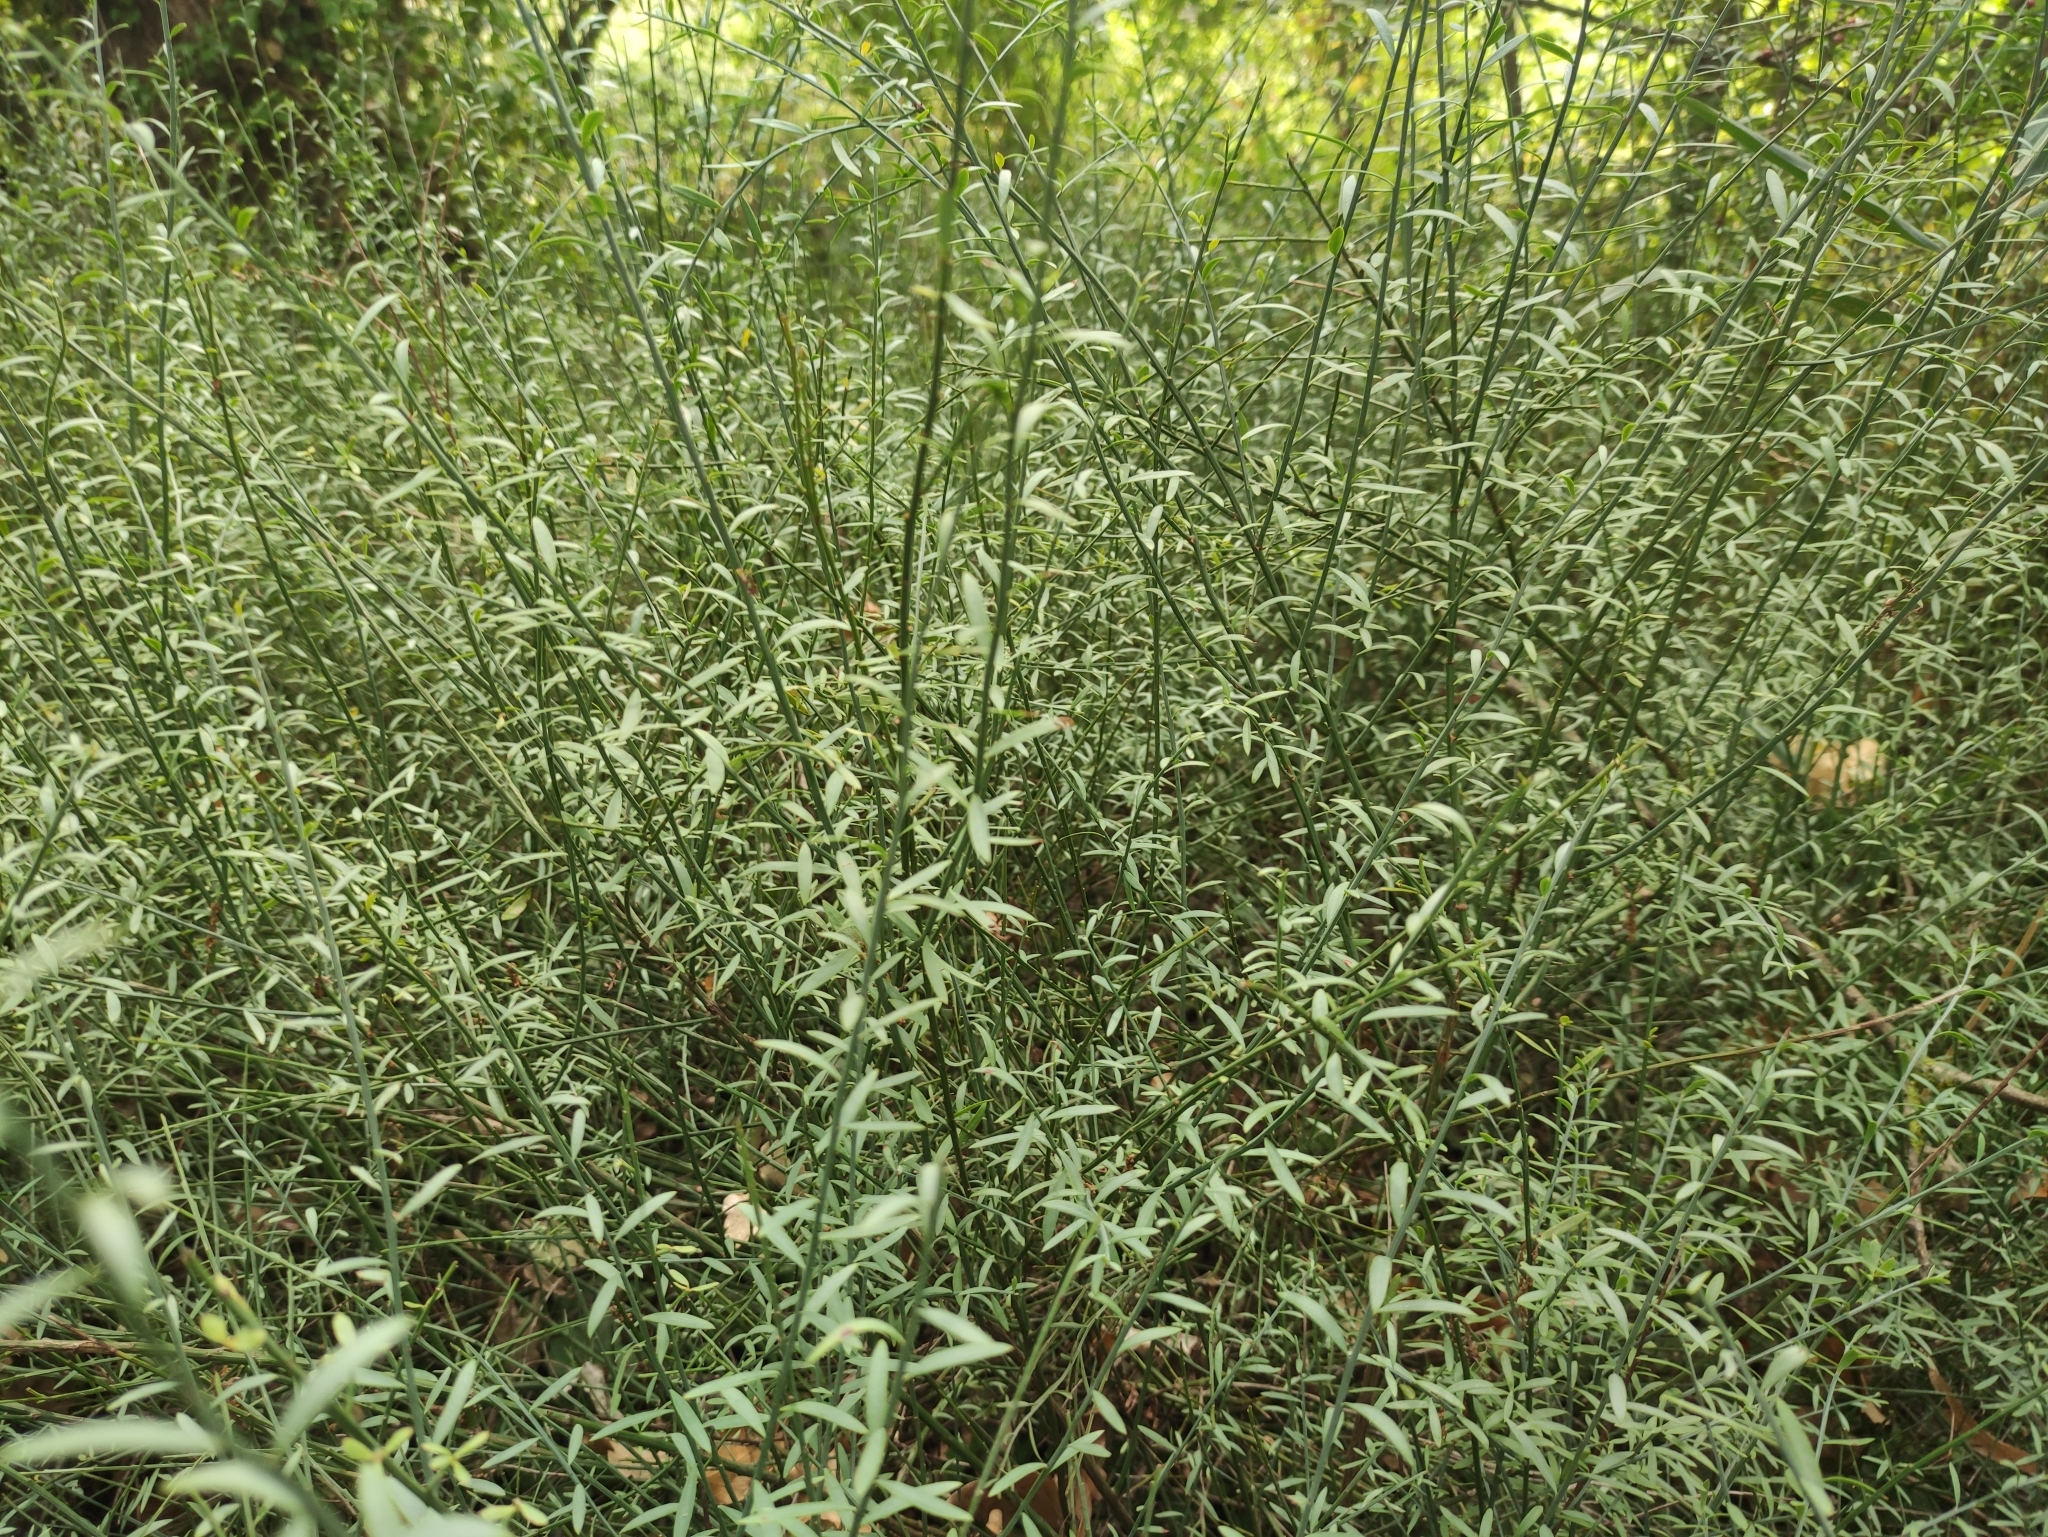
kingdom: Plantae
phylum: Tracheophyta
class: Magnoliopsida
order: Santalales
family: Santalaceae
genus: Osyris
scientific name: Osyris alba
